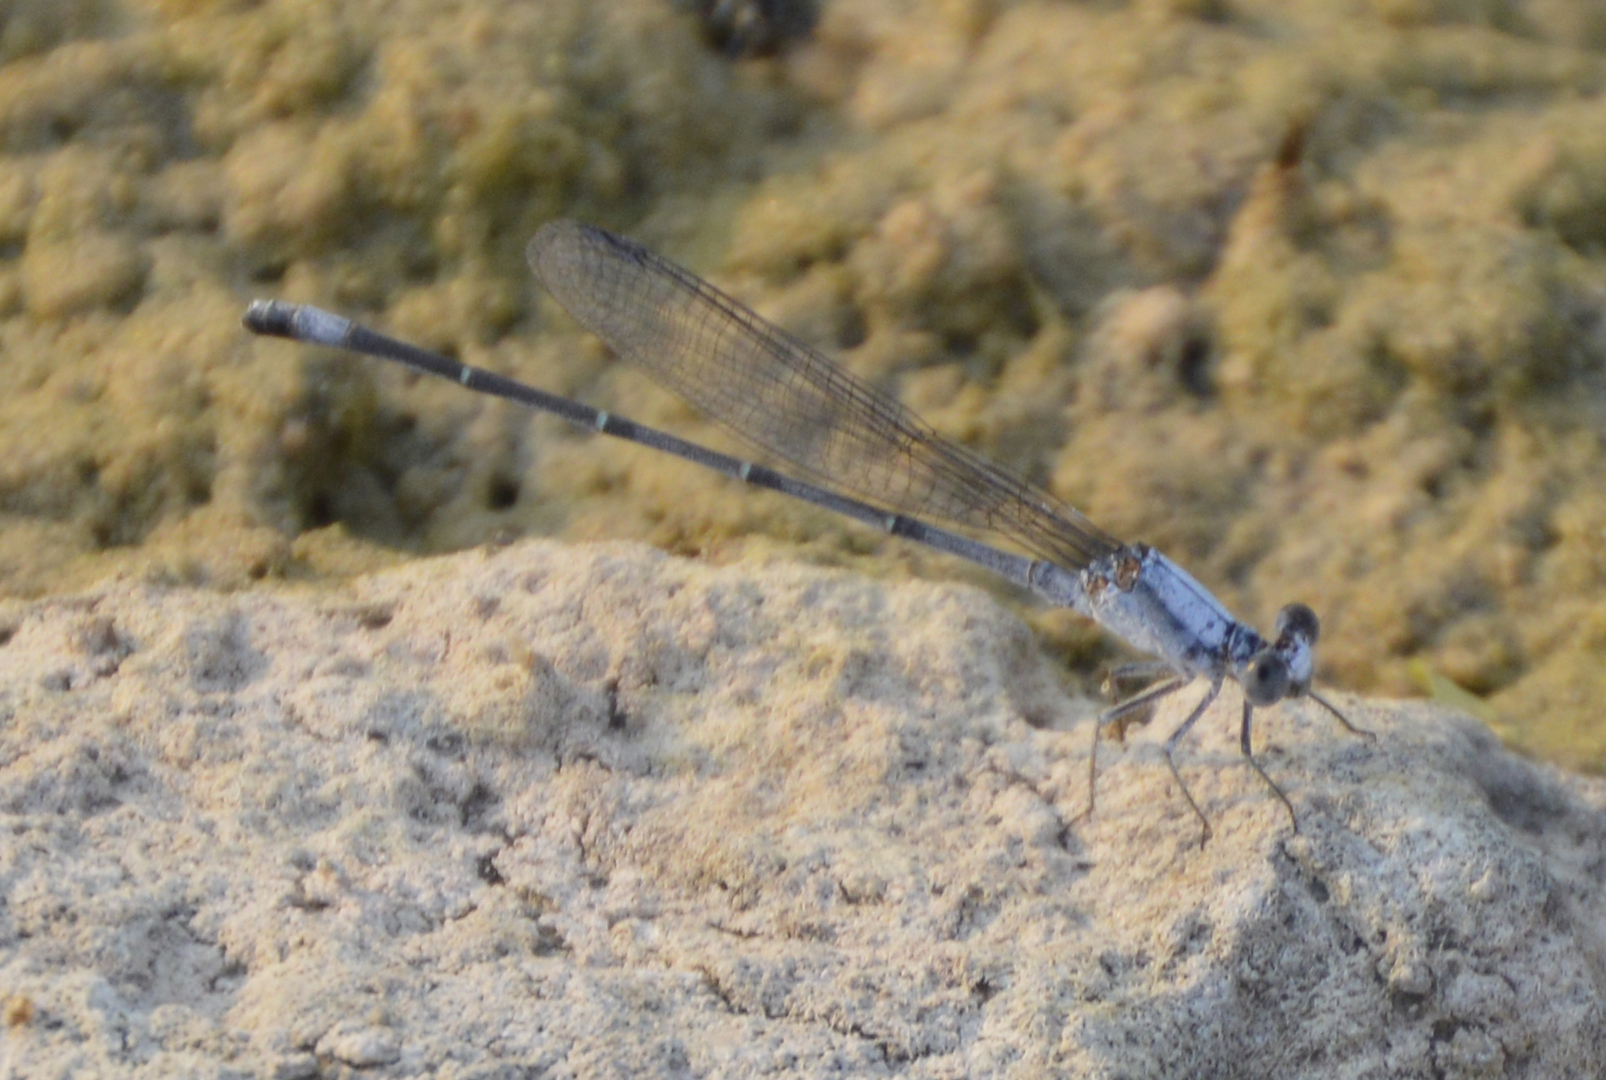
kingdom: Animalia
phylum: Arthropoda
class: Insecta
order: Odonata
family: Coenagrionidae
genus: Argia
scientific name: Argia moesta
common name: Powdered dancer
